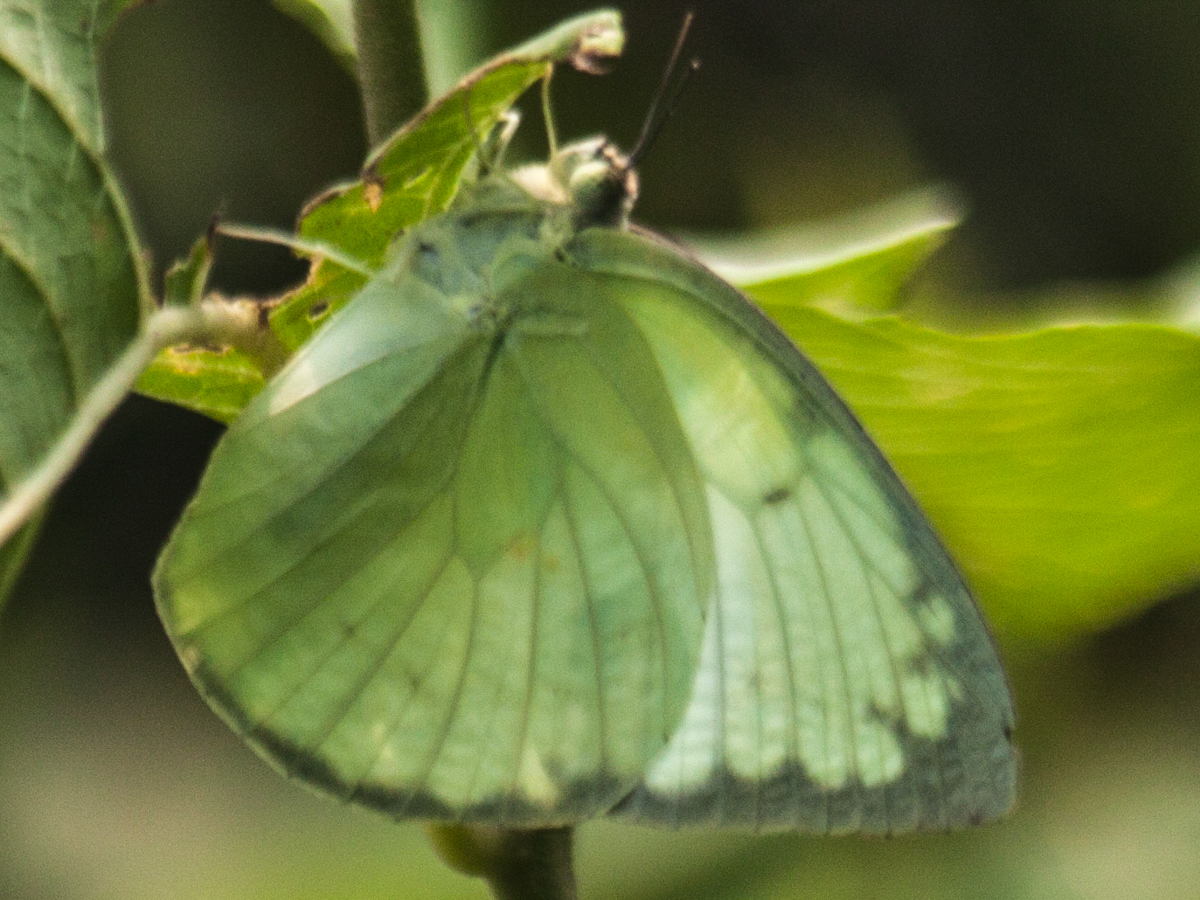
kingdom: Animalia
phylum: Arthropoda
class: Insecta
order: Lepidoptera
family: Pieridae
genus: Catopsilia
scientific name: Catopsilia pomona
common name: Common emigrant
